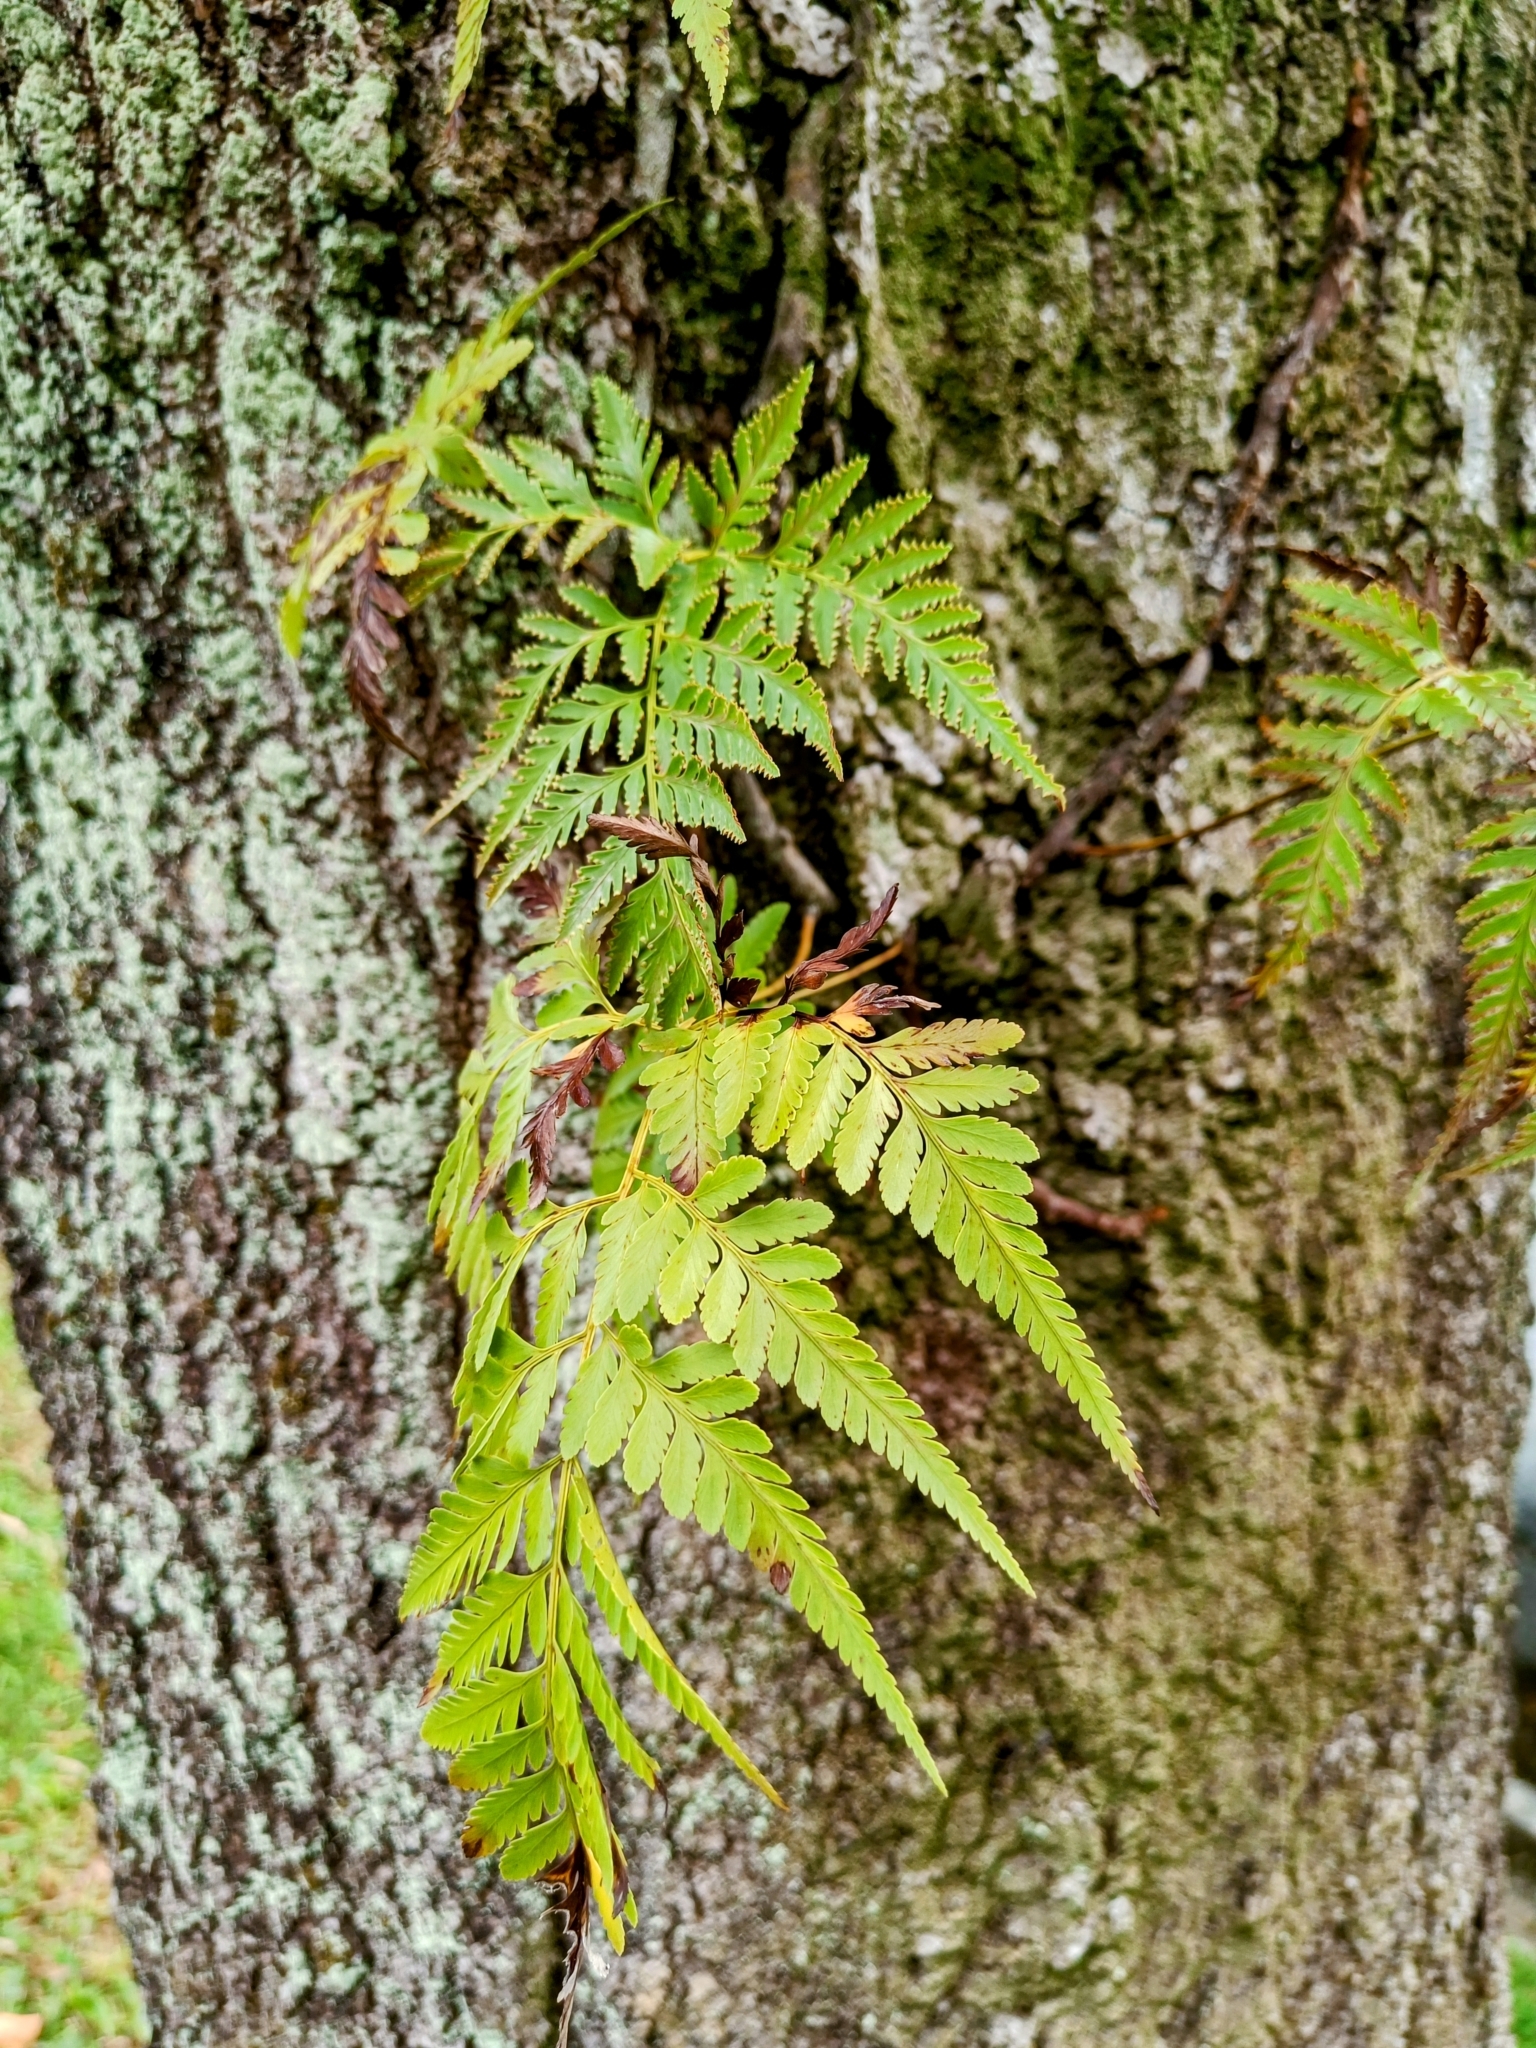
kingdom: Plantae
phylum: Tracheophyta
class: Polypodiopsida
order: Polypodiales
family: Davalliaceae
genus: Davallia
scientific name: Davallia denticulata
